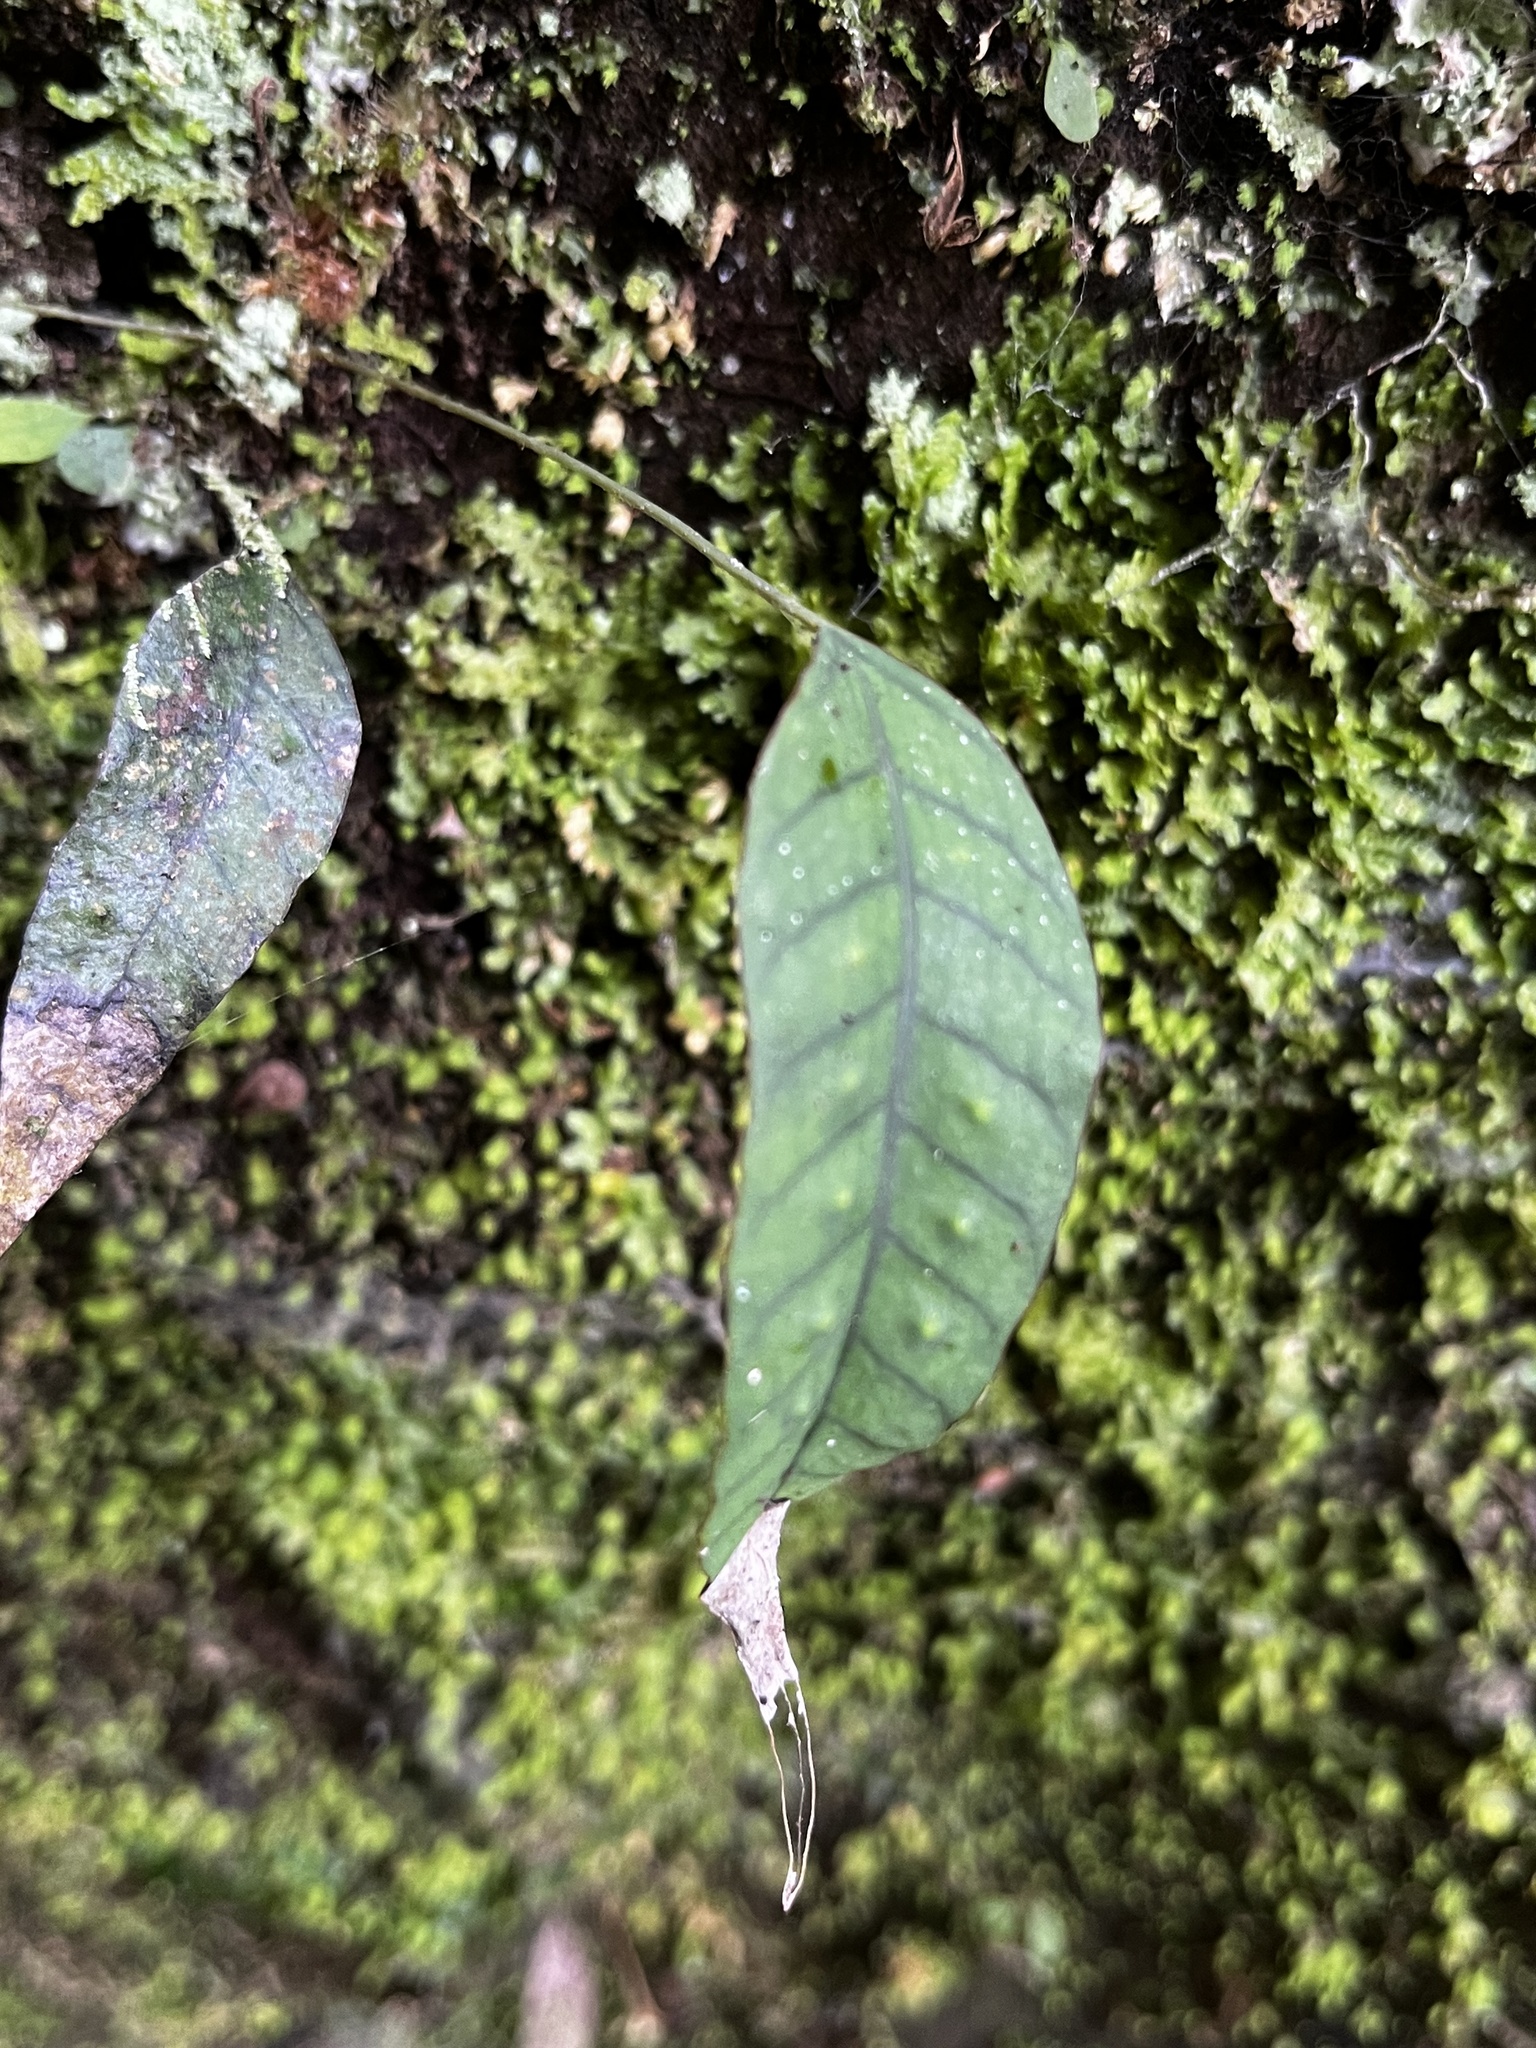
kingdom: Plantae
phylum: Tracheophyta
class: Polypodiopsida
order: Polypodiales
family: Polypodiaceae
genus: Selliguea
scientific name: Selliguea hastata
